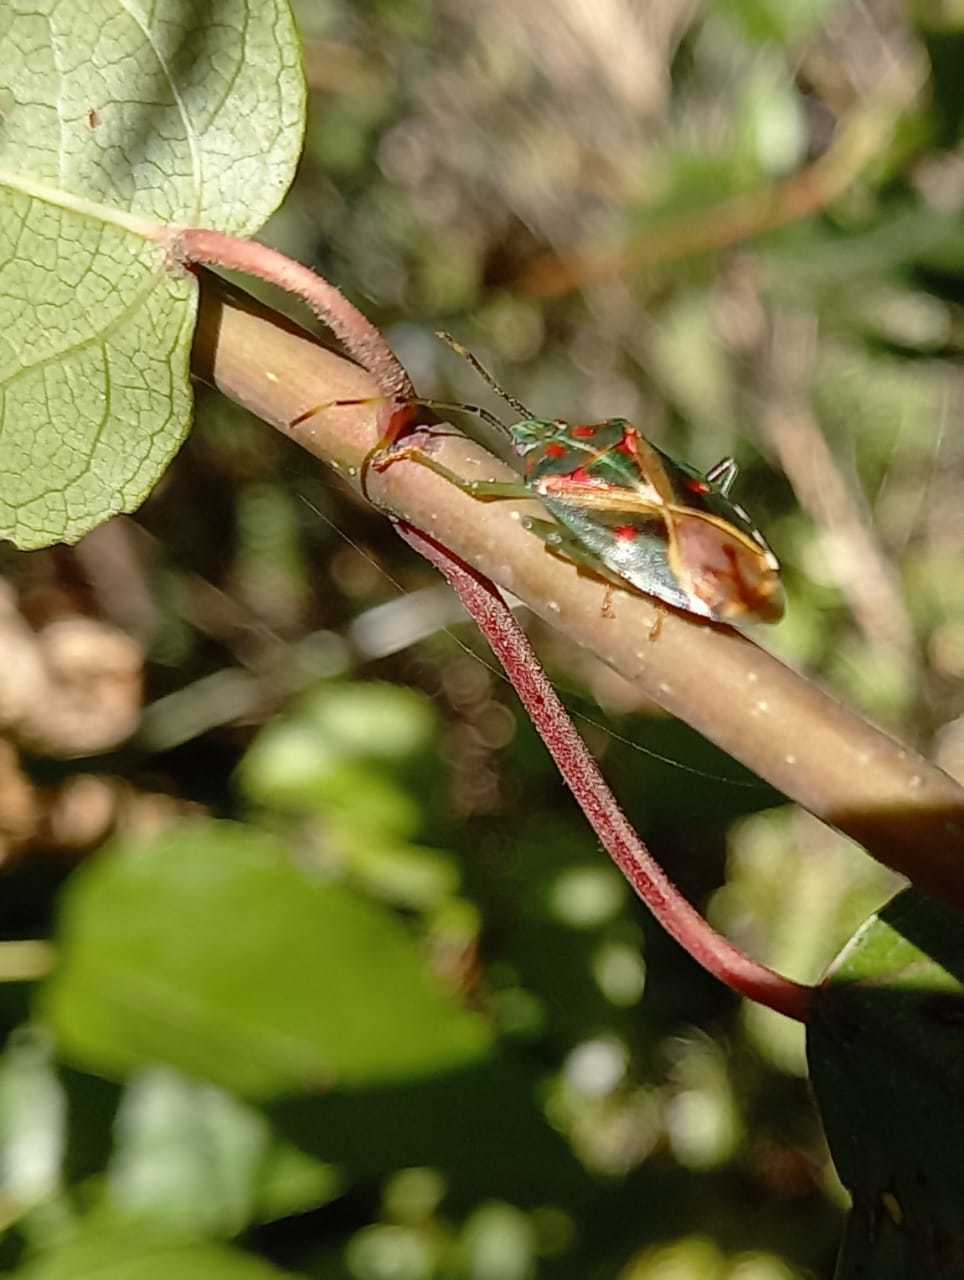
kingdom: Animalia
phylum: Arthropoda
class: Insecta
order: Hemiptera
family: Acanthosomatidae
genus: Planois
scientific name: Planois patagonus
